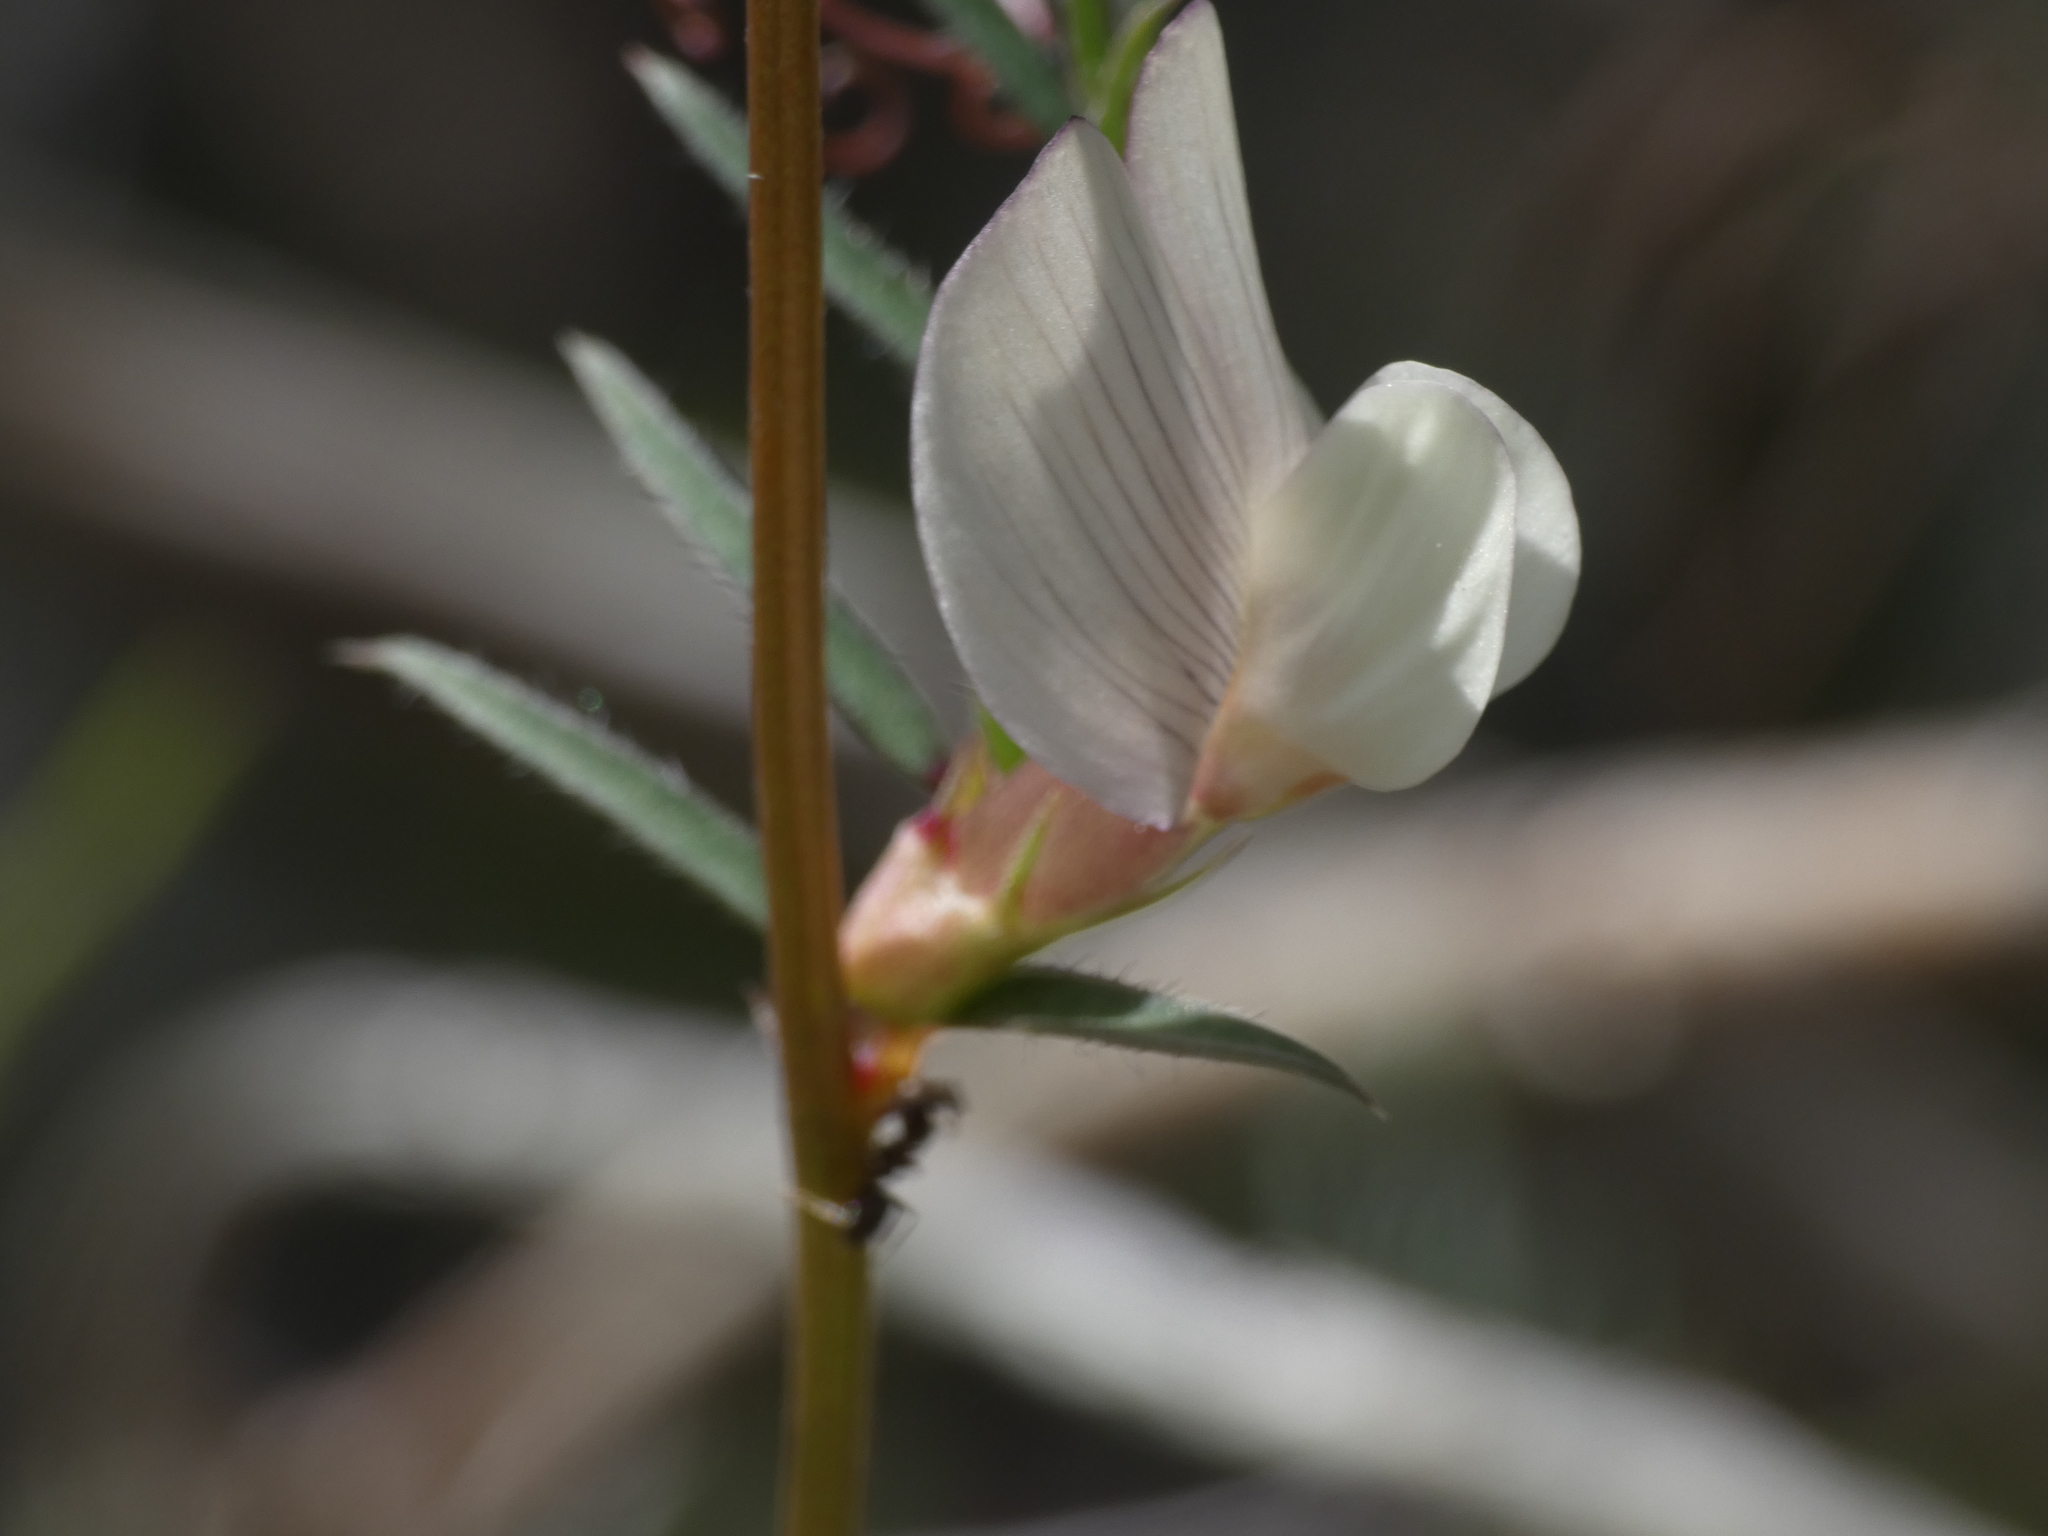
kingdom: Plantae
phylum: Tracheophyta
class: Magnoliopsida
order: Fabales
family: Fabaceae
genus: Vicia
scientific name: Vicia lutea
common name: Smooth yellow vetch
